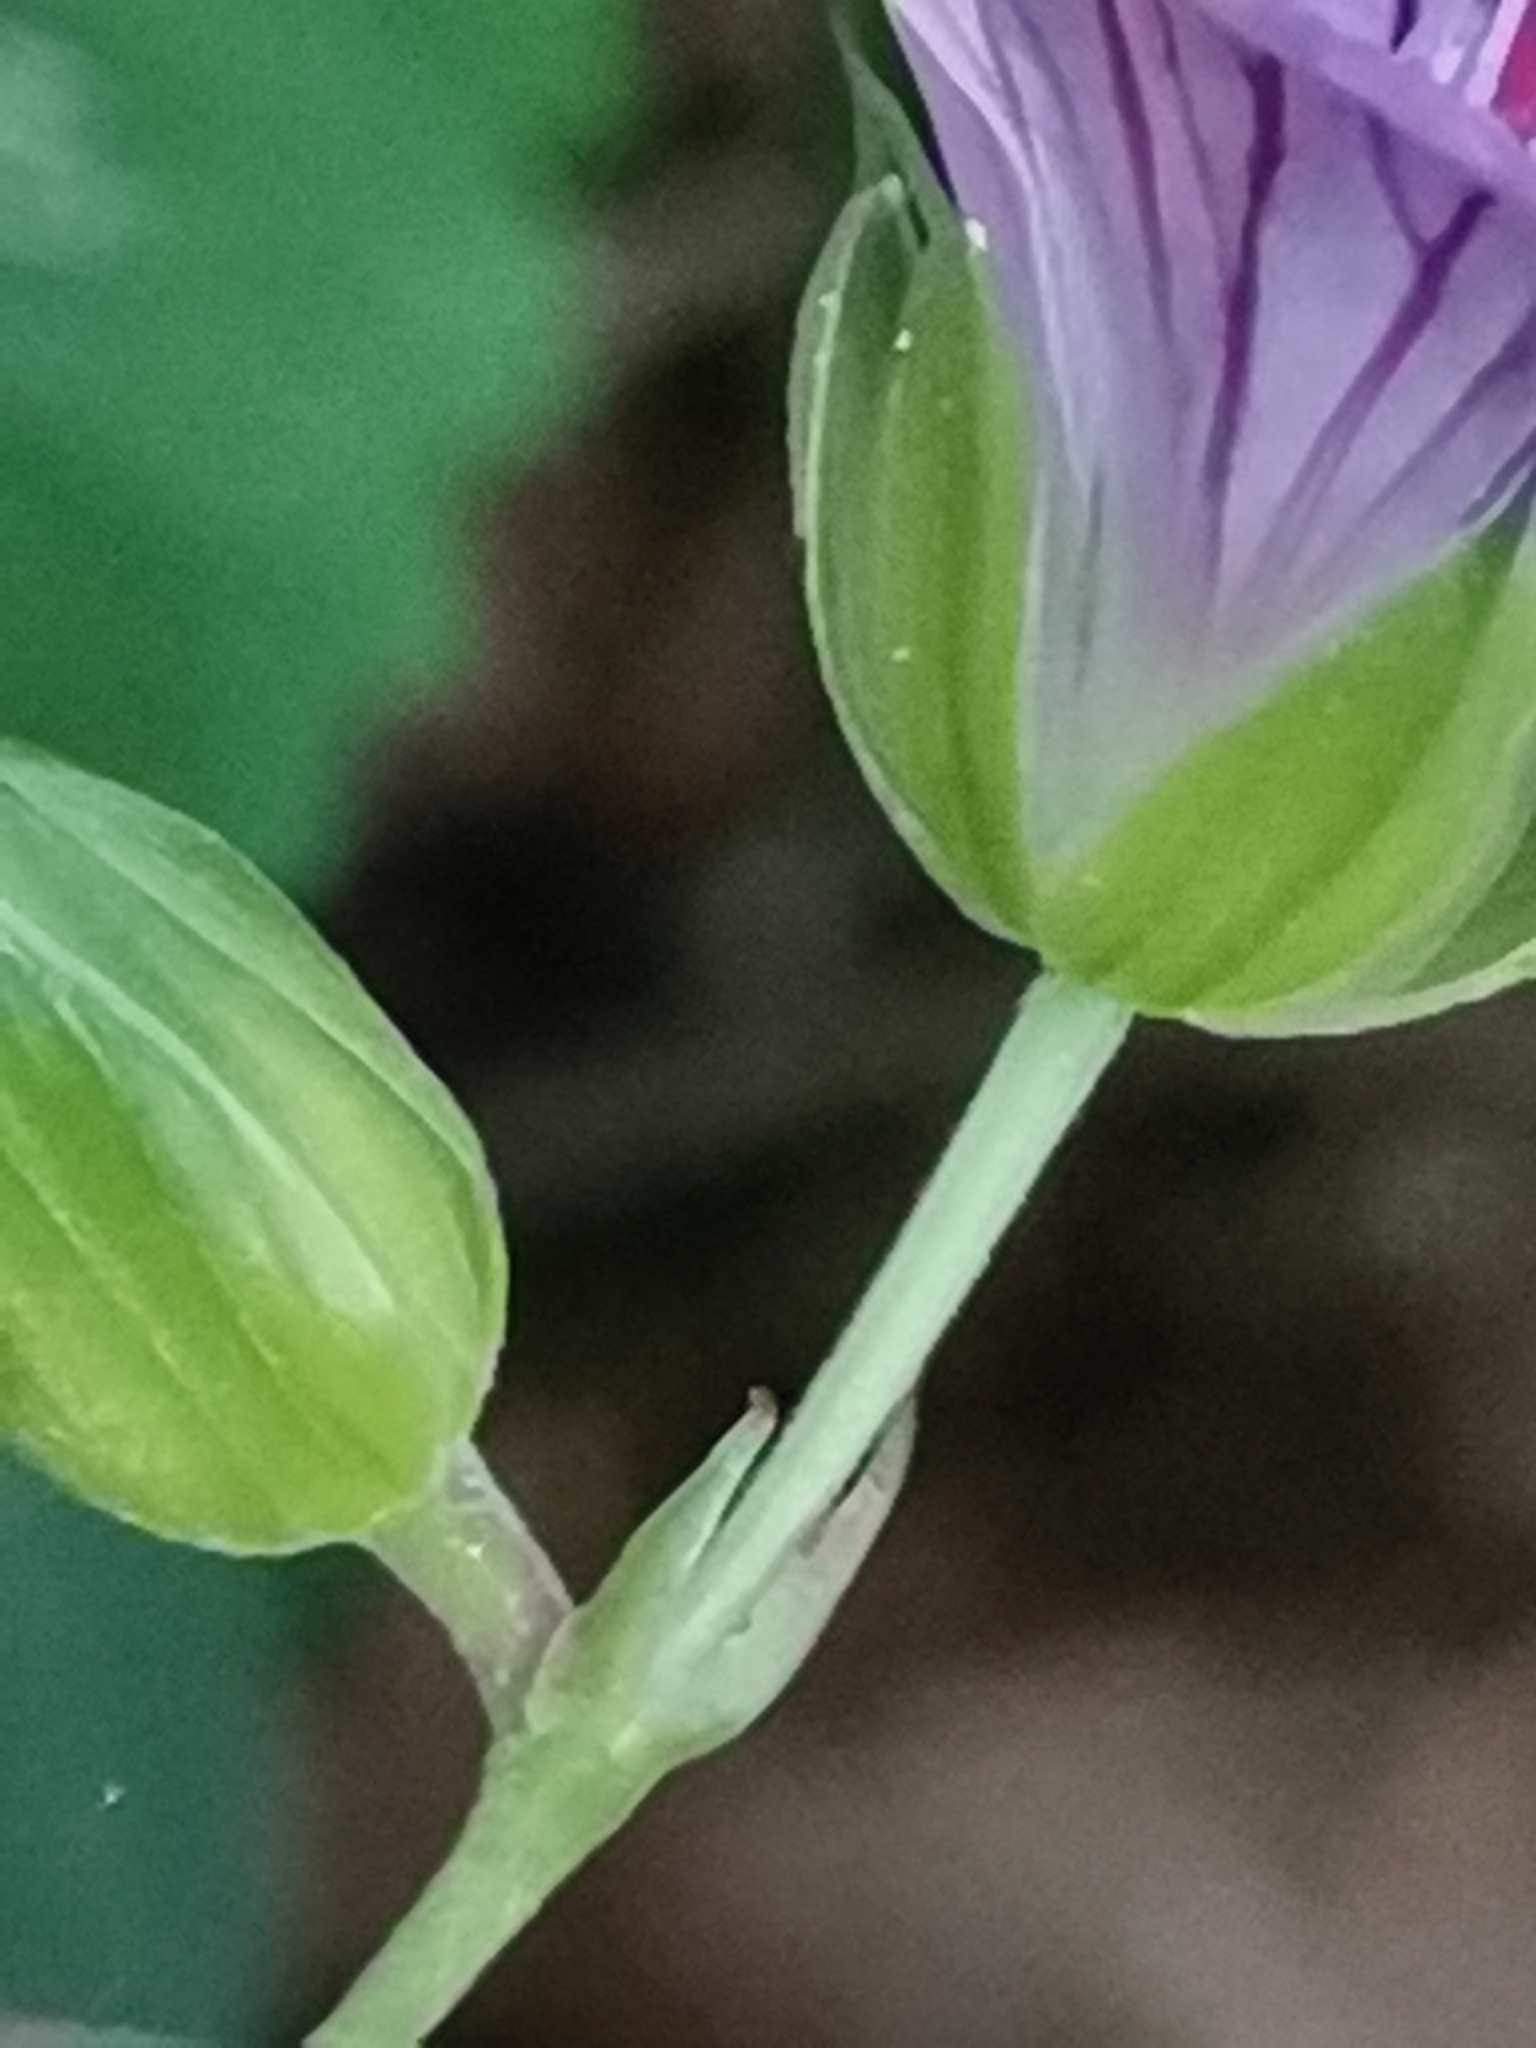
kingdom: Plantae
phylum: Tracheophyta
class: Magnoliopsida
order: Geraniales
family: Geraniaceae
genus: Geranium
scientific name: Geranium nodosum
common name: Knotted crane's-bill
